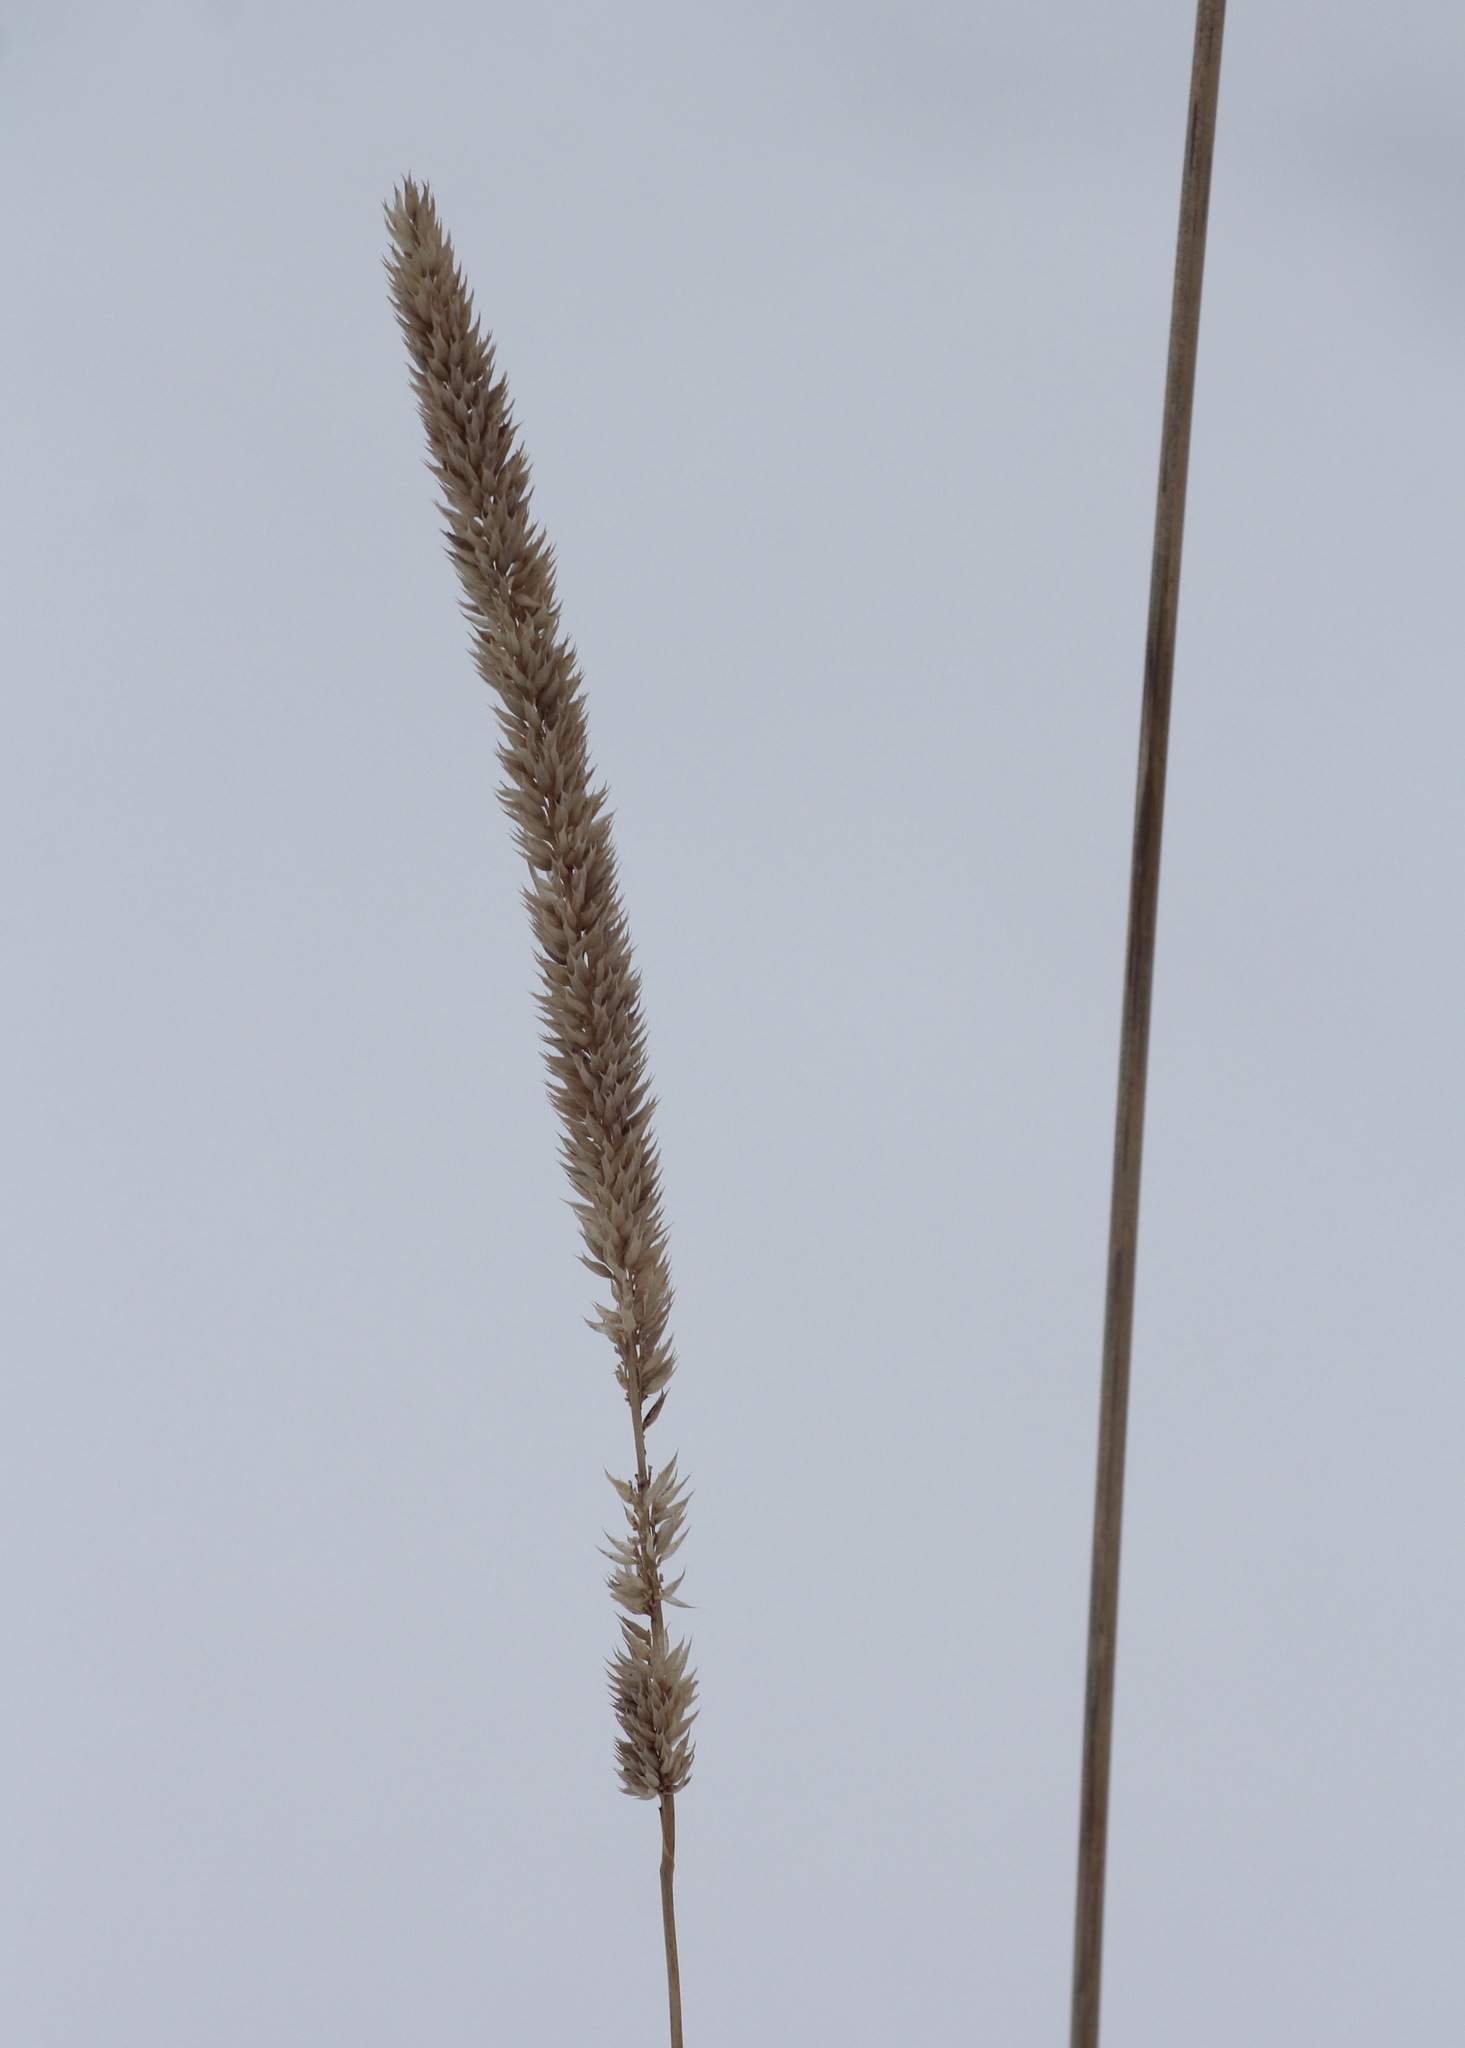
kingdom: Plantae
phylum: Tracheophyta
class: Liliopsida
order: Poales
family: Poaceae
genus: Phleum
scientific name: Phleum phleoides
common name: Purple-stem cat's-tail
